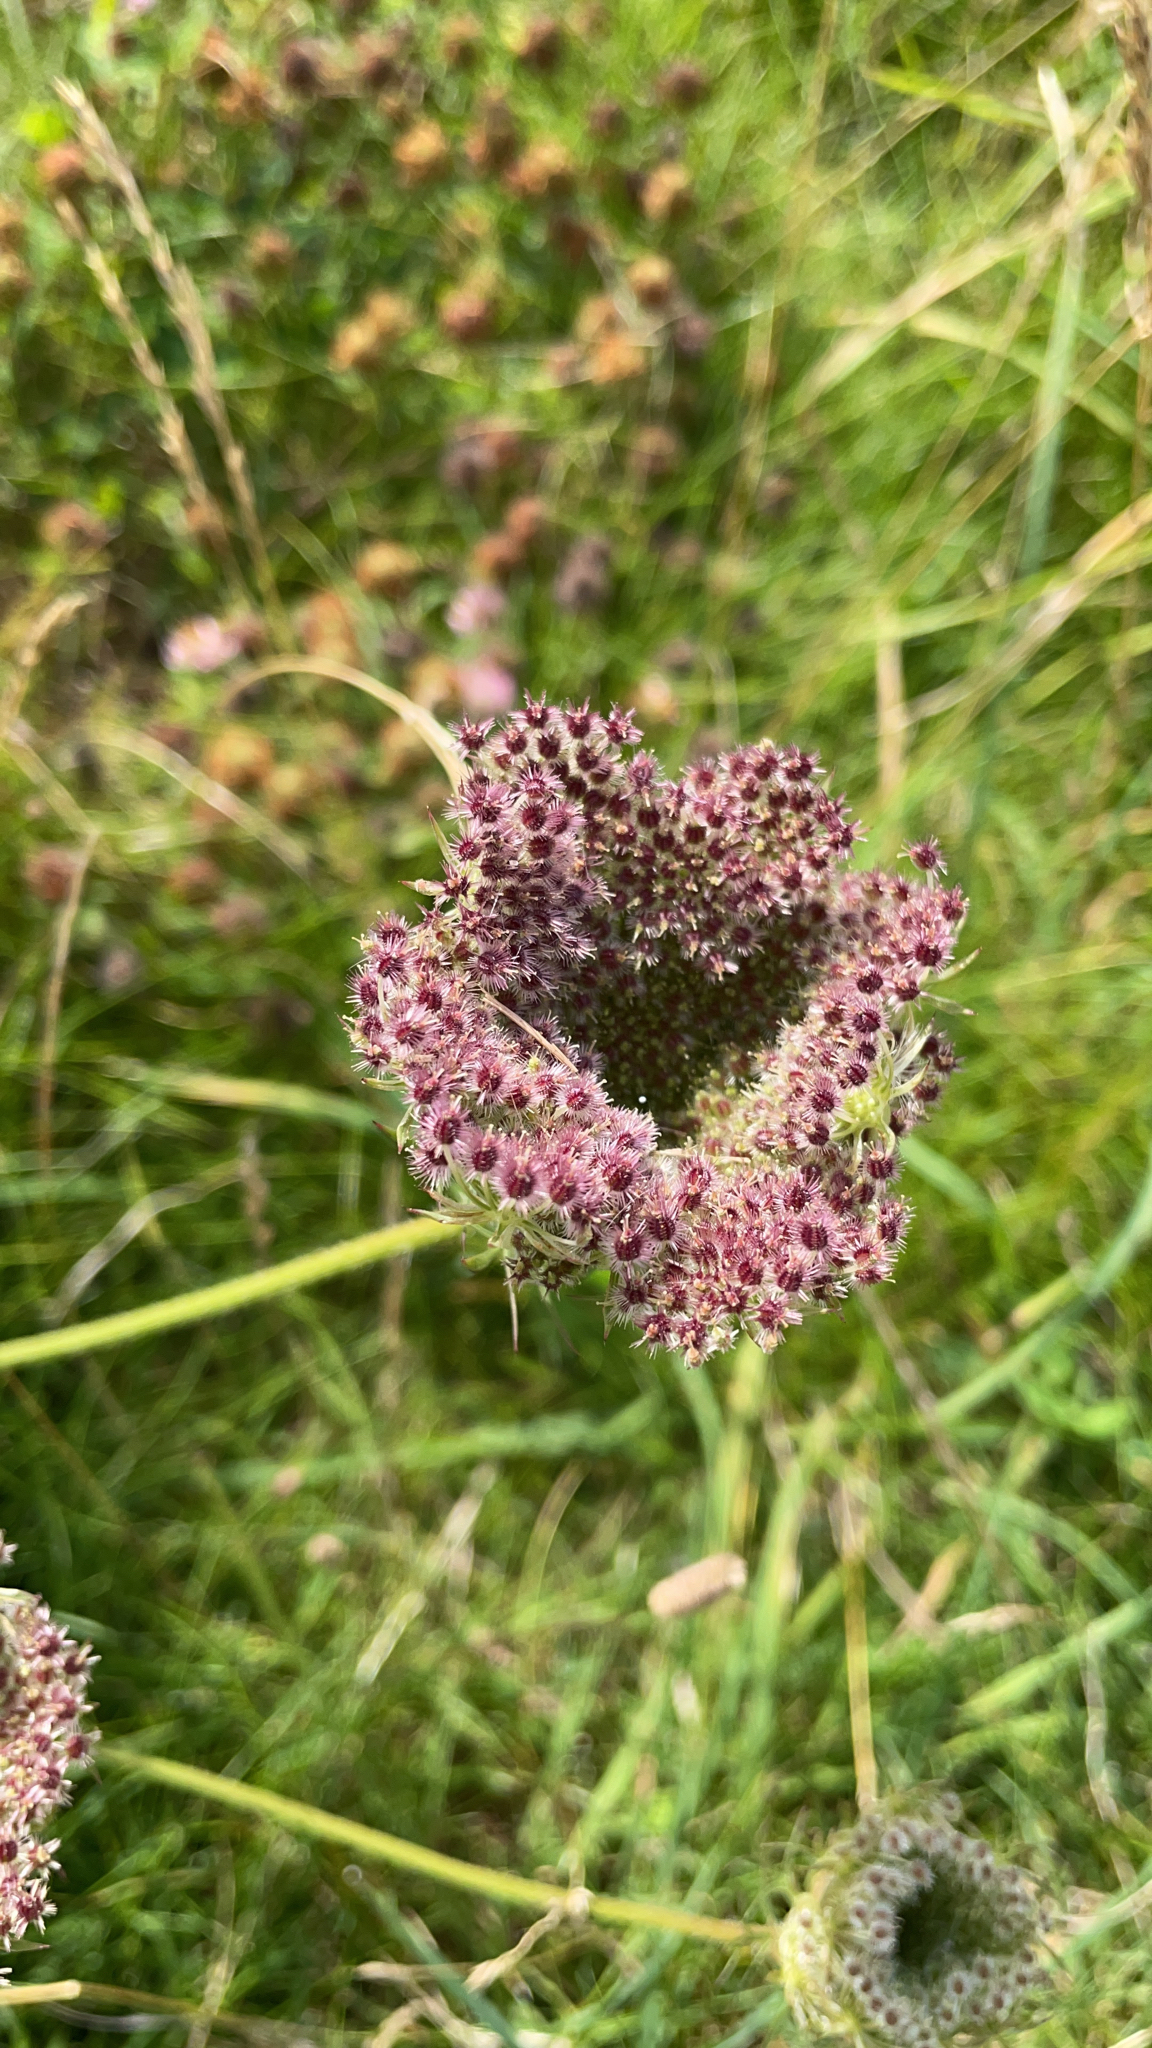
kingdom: Plantae
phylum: Tracheophyta
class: Magnoliopsida
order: Apiales
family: Apiaceae
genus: Daucus
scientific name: Daucus carota
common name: Wild carrot
